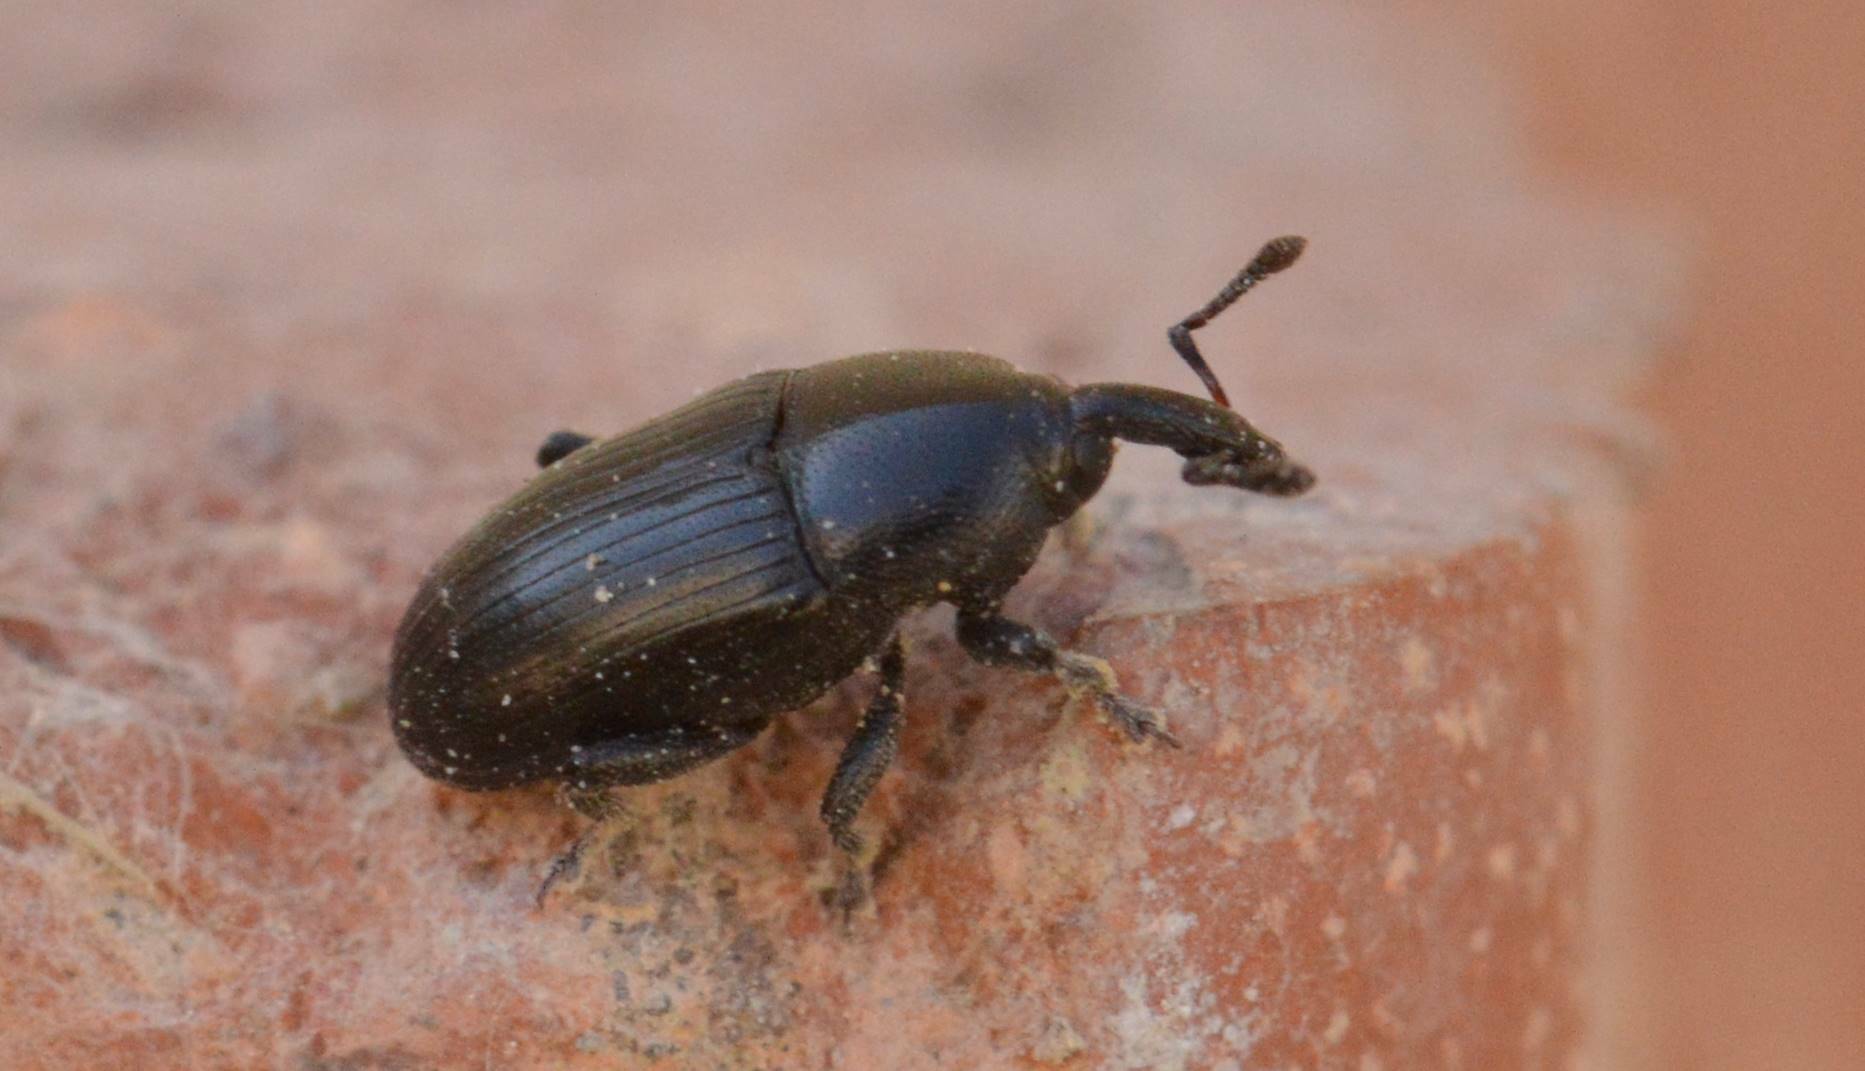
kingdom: Animalia
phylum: Arthropoda
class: Insecta
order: Coleoptera
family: Curculionidae
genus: Malvaevora
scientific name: Malvaevora timida
